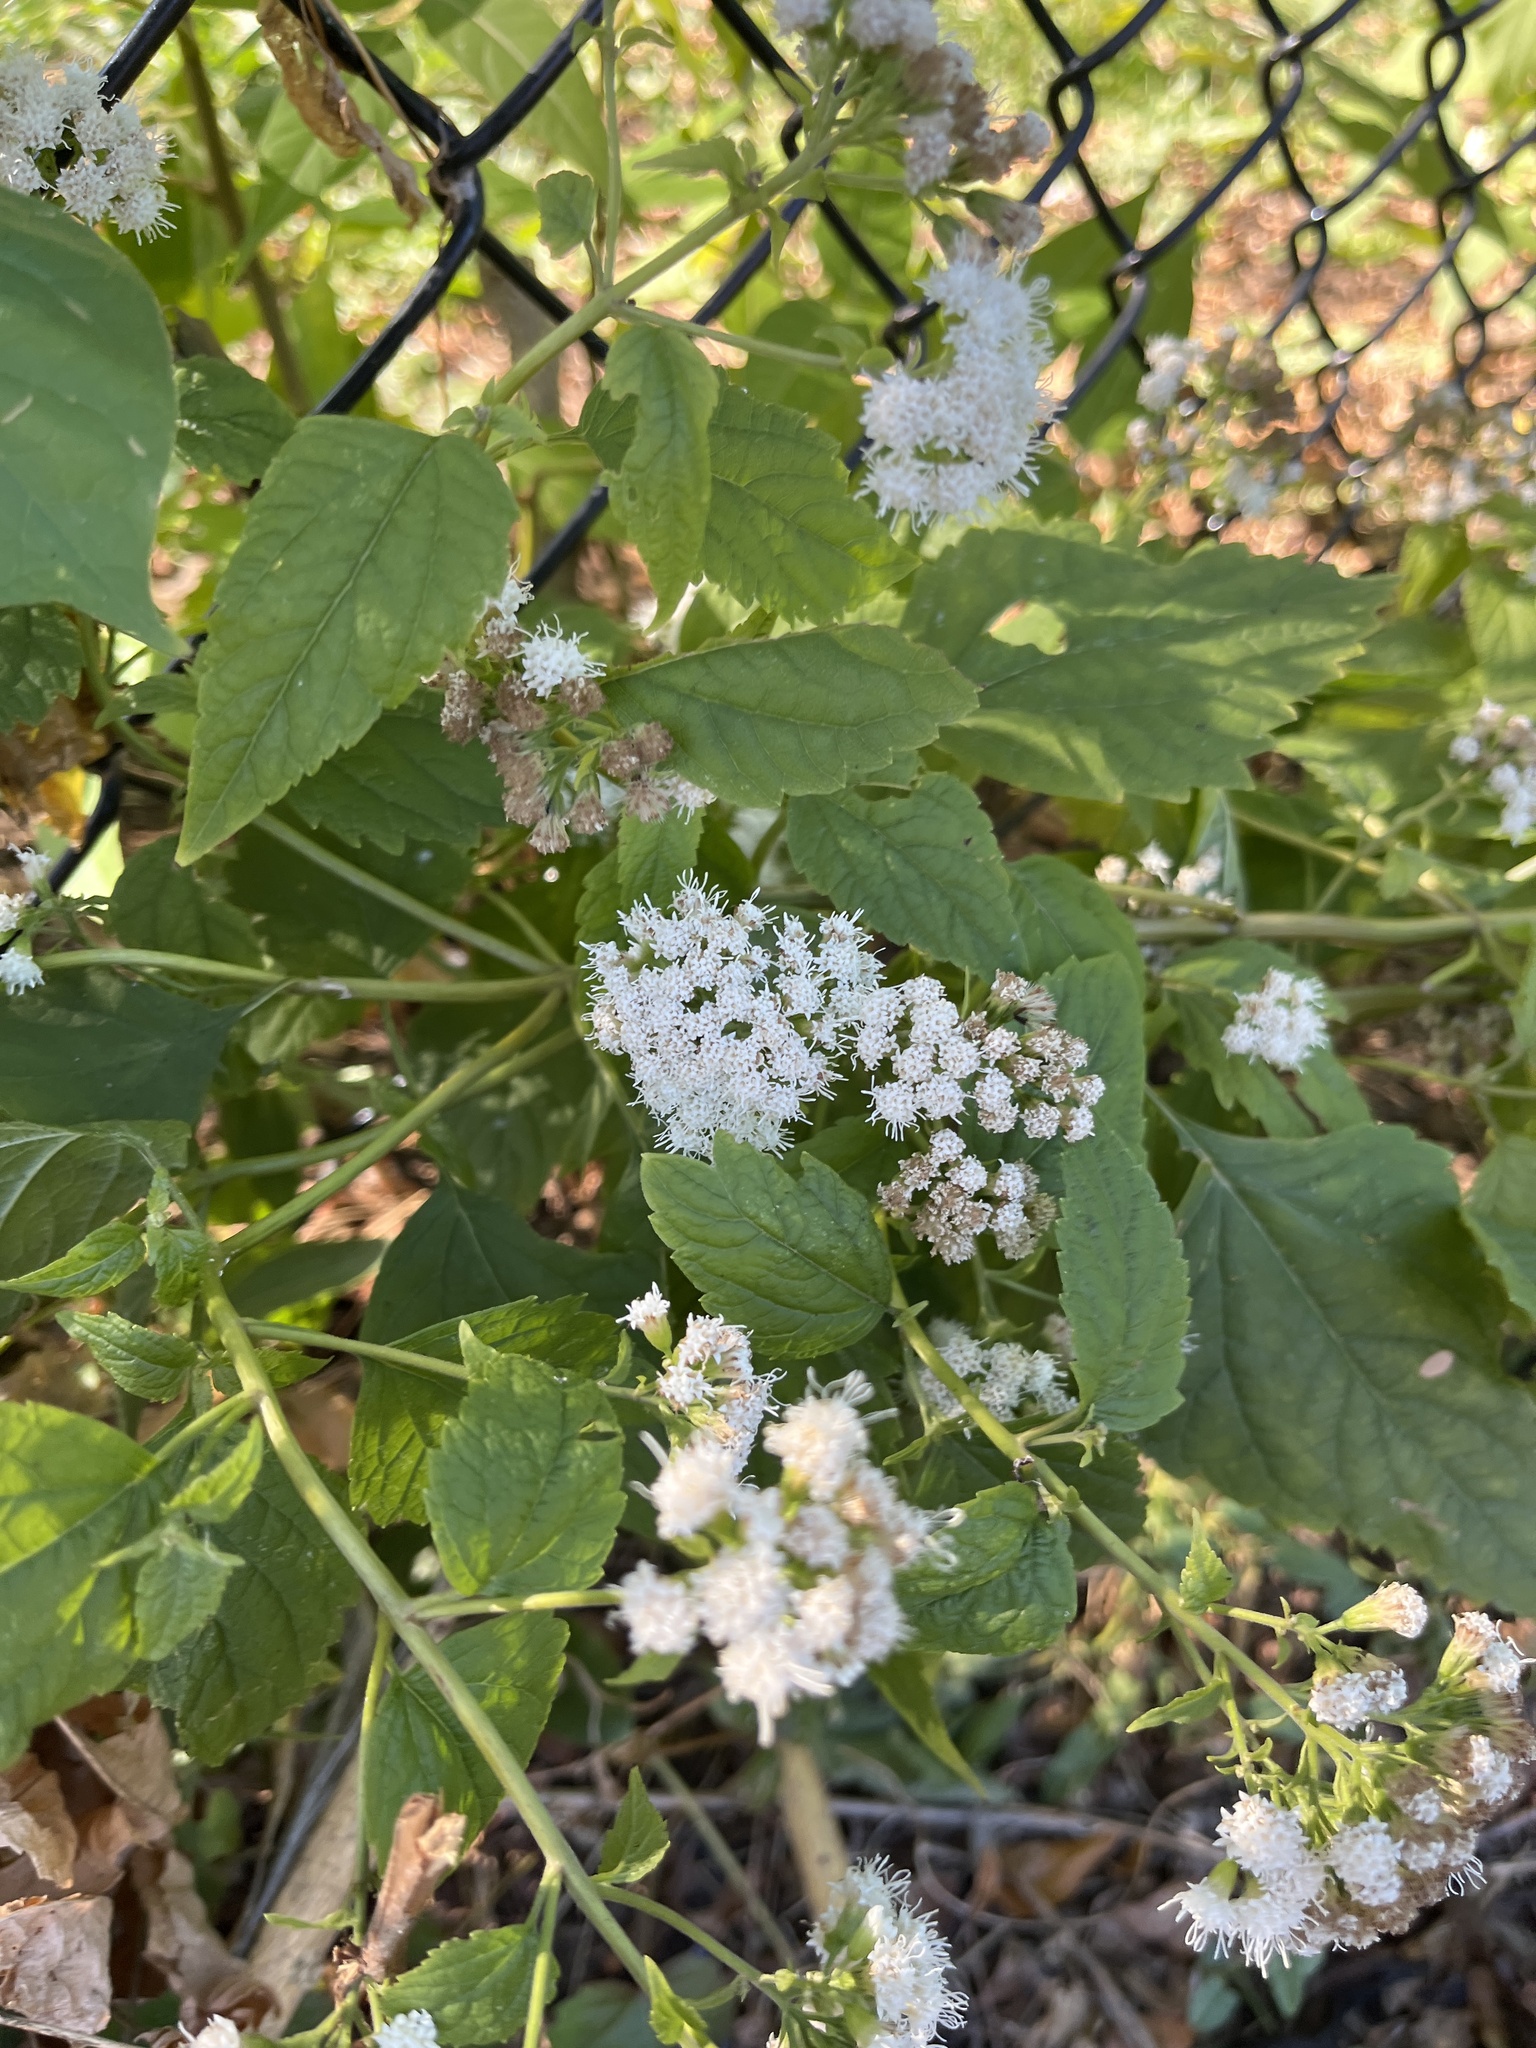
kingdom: Plantae
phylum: Tracheophyta
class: Magnoliopsida
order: Asterales
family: Asteraceae
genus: Ageratina
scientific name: Ageratina altissima
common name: White snakeroot
